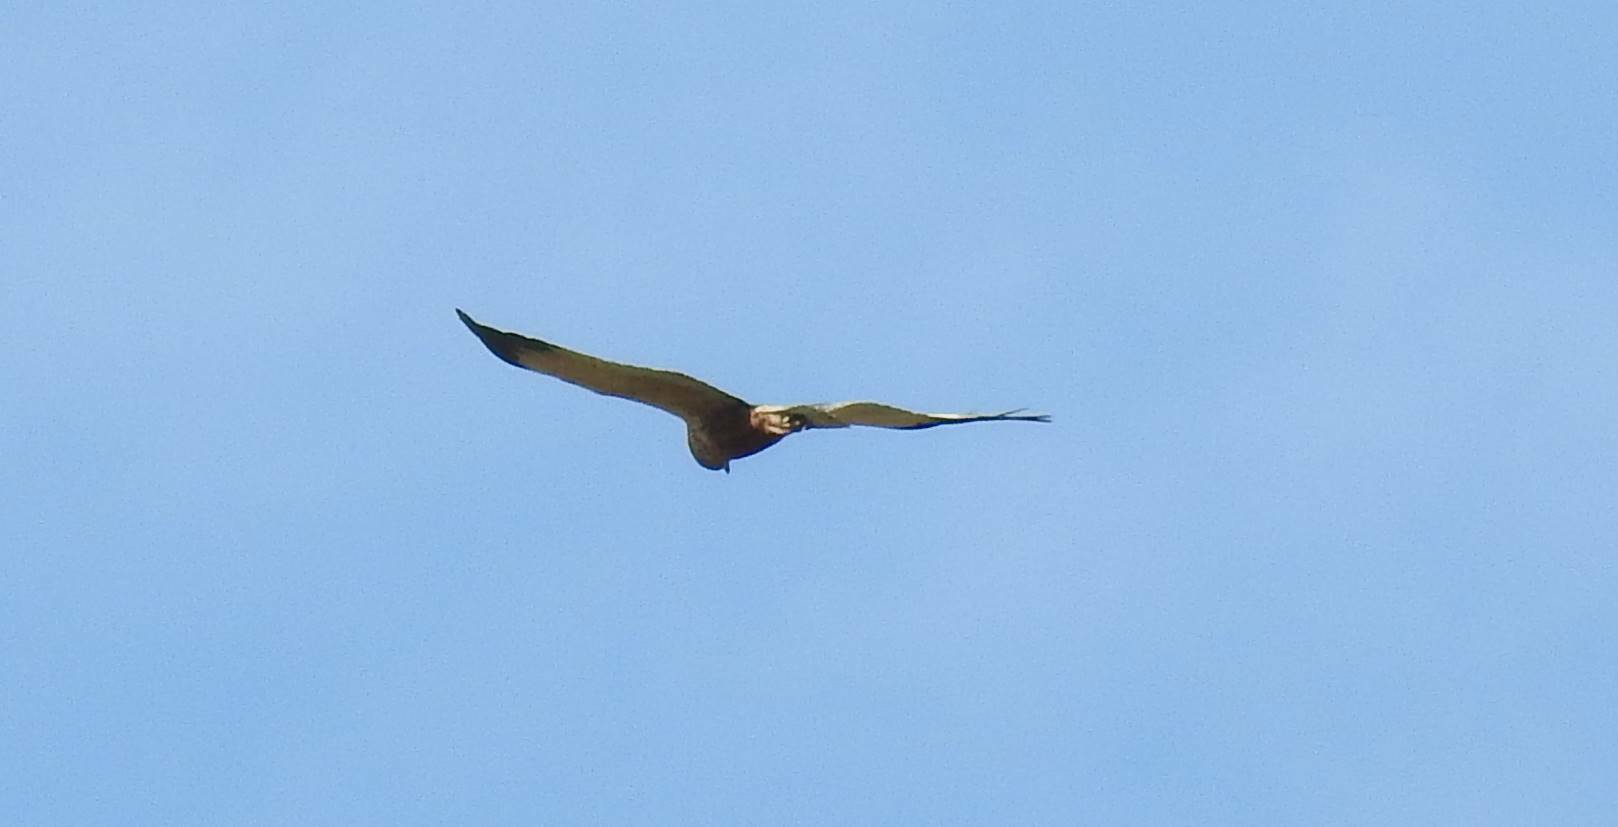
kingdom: Animalia
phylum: Chordata
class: Aves
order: Accipitriformes
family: Accipitridae
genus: Circus
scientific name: Circus aeruginosus
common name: Western marsh harrier
